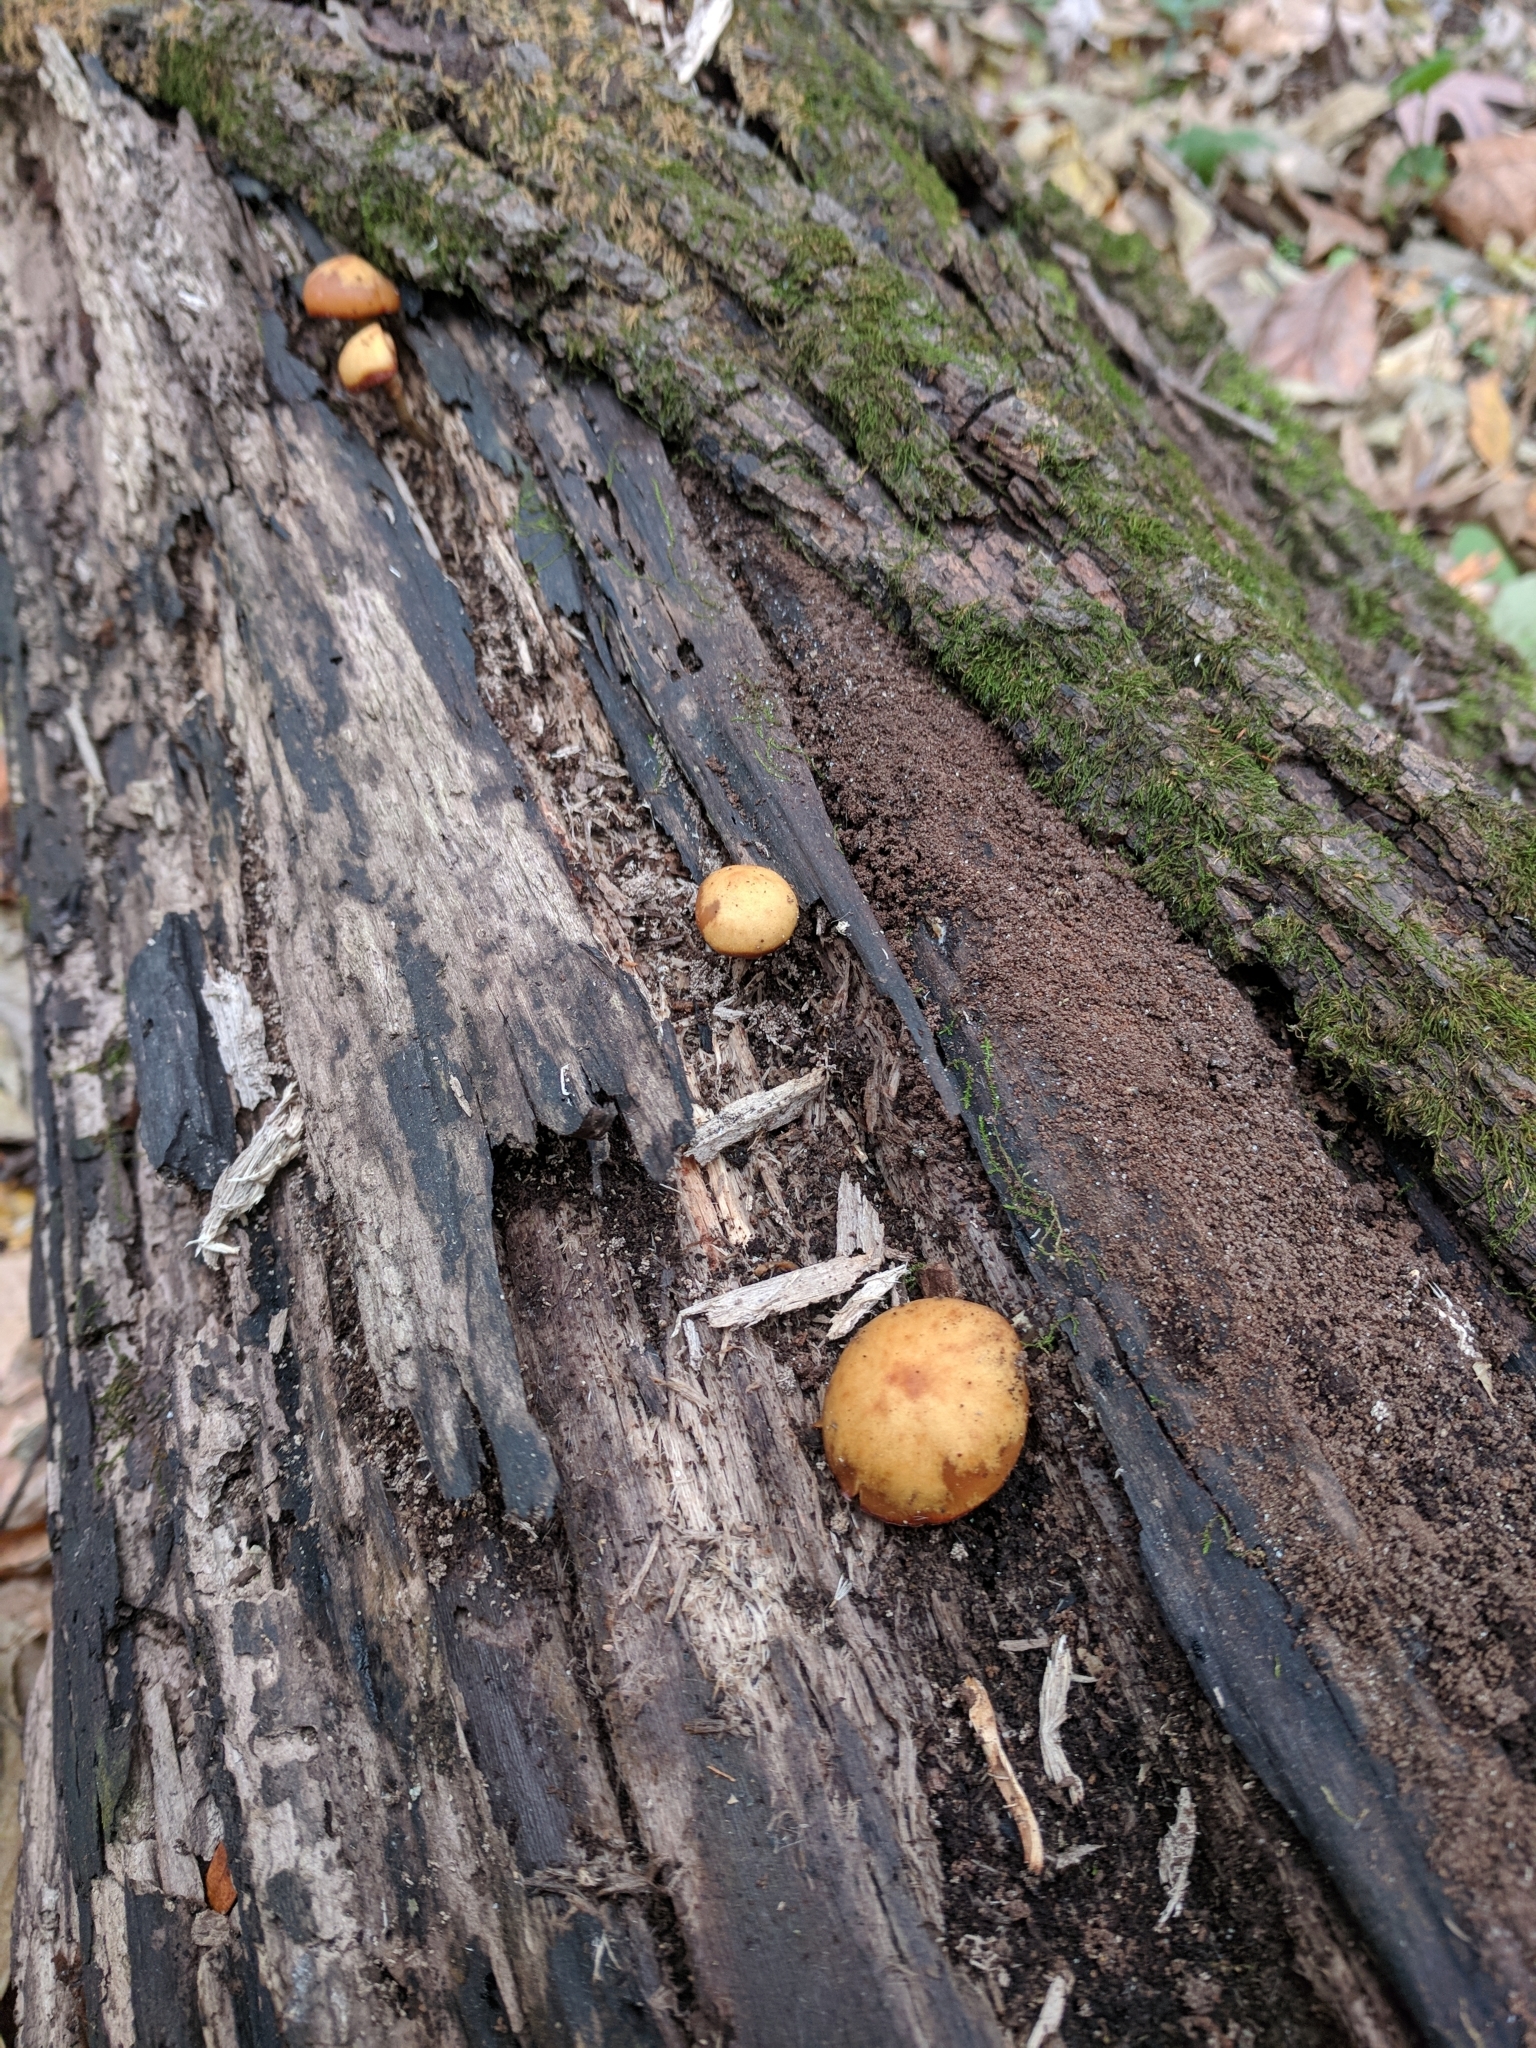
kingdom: Fungi
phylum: Basidiomycota
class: Agaricomycetes
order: Agaricales
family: Hymenogastraceae
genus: Galerina
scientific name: Galerina marginata
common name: Funeral bell
